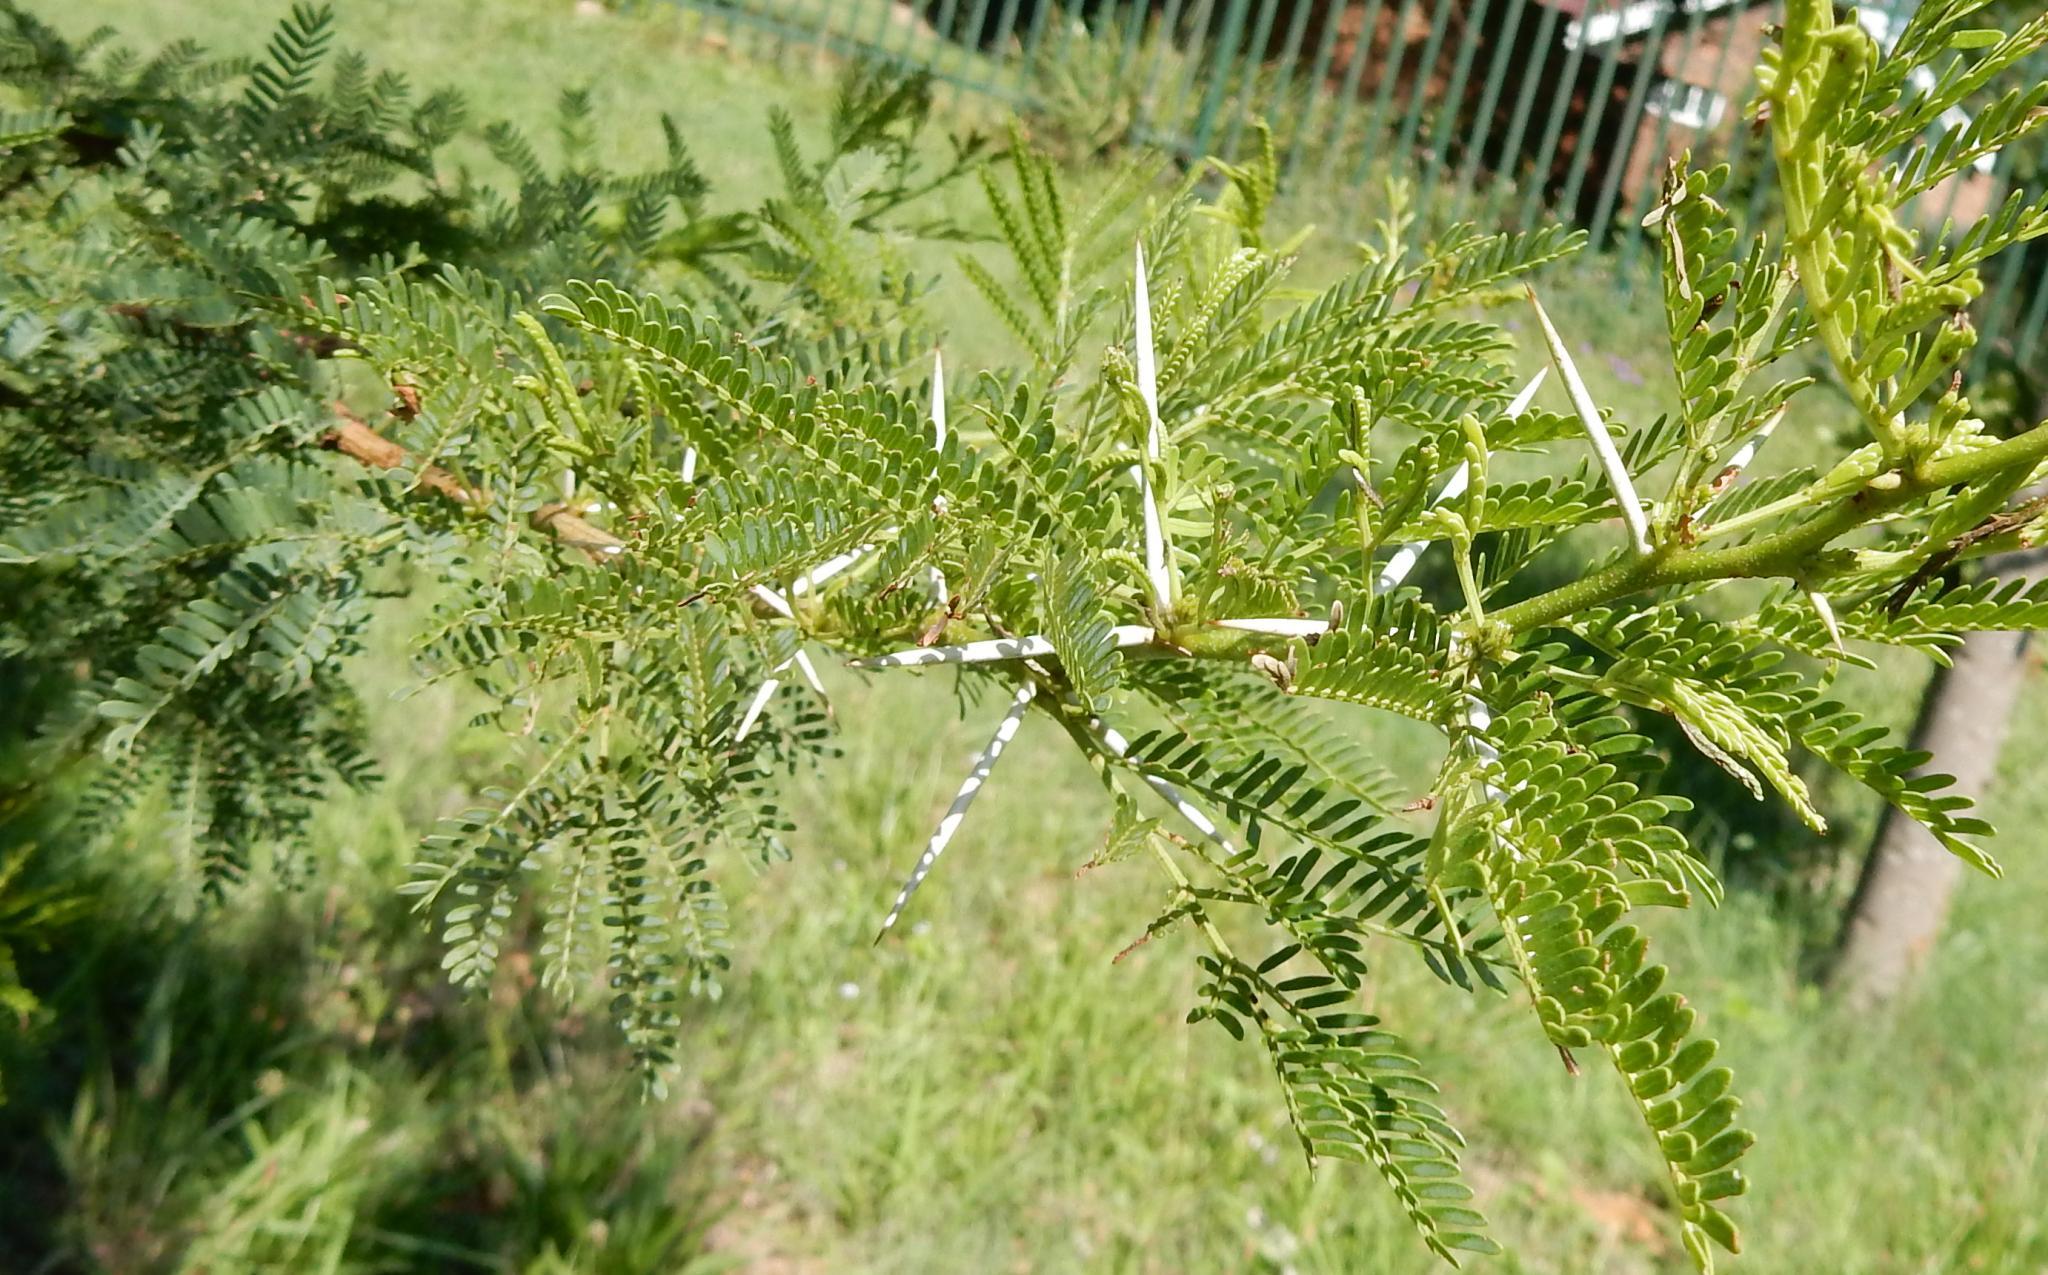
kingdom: Plantae
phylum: Tracheophyta
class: Magnoliopsida
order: Fabales
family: Fabaceae
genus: Vachellia
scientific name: Vachellia karroo
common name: Sweet thorn
